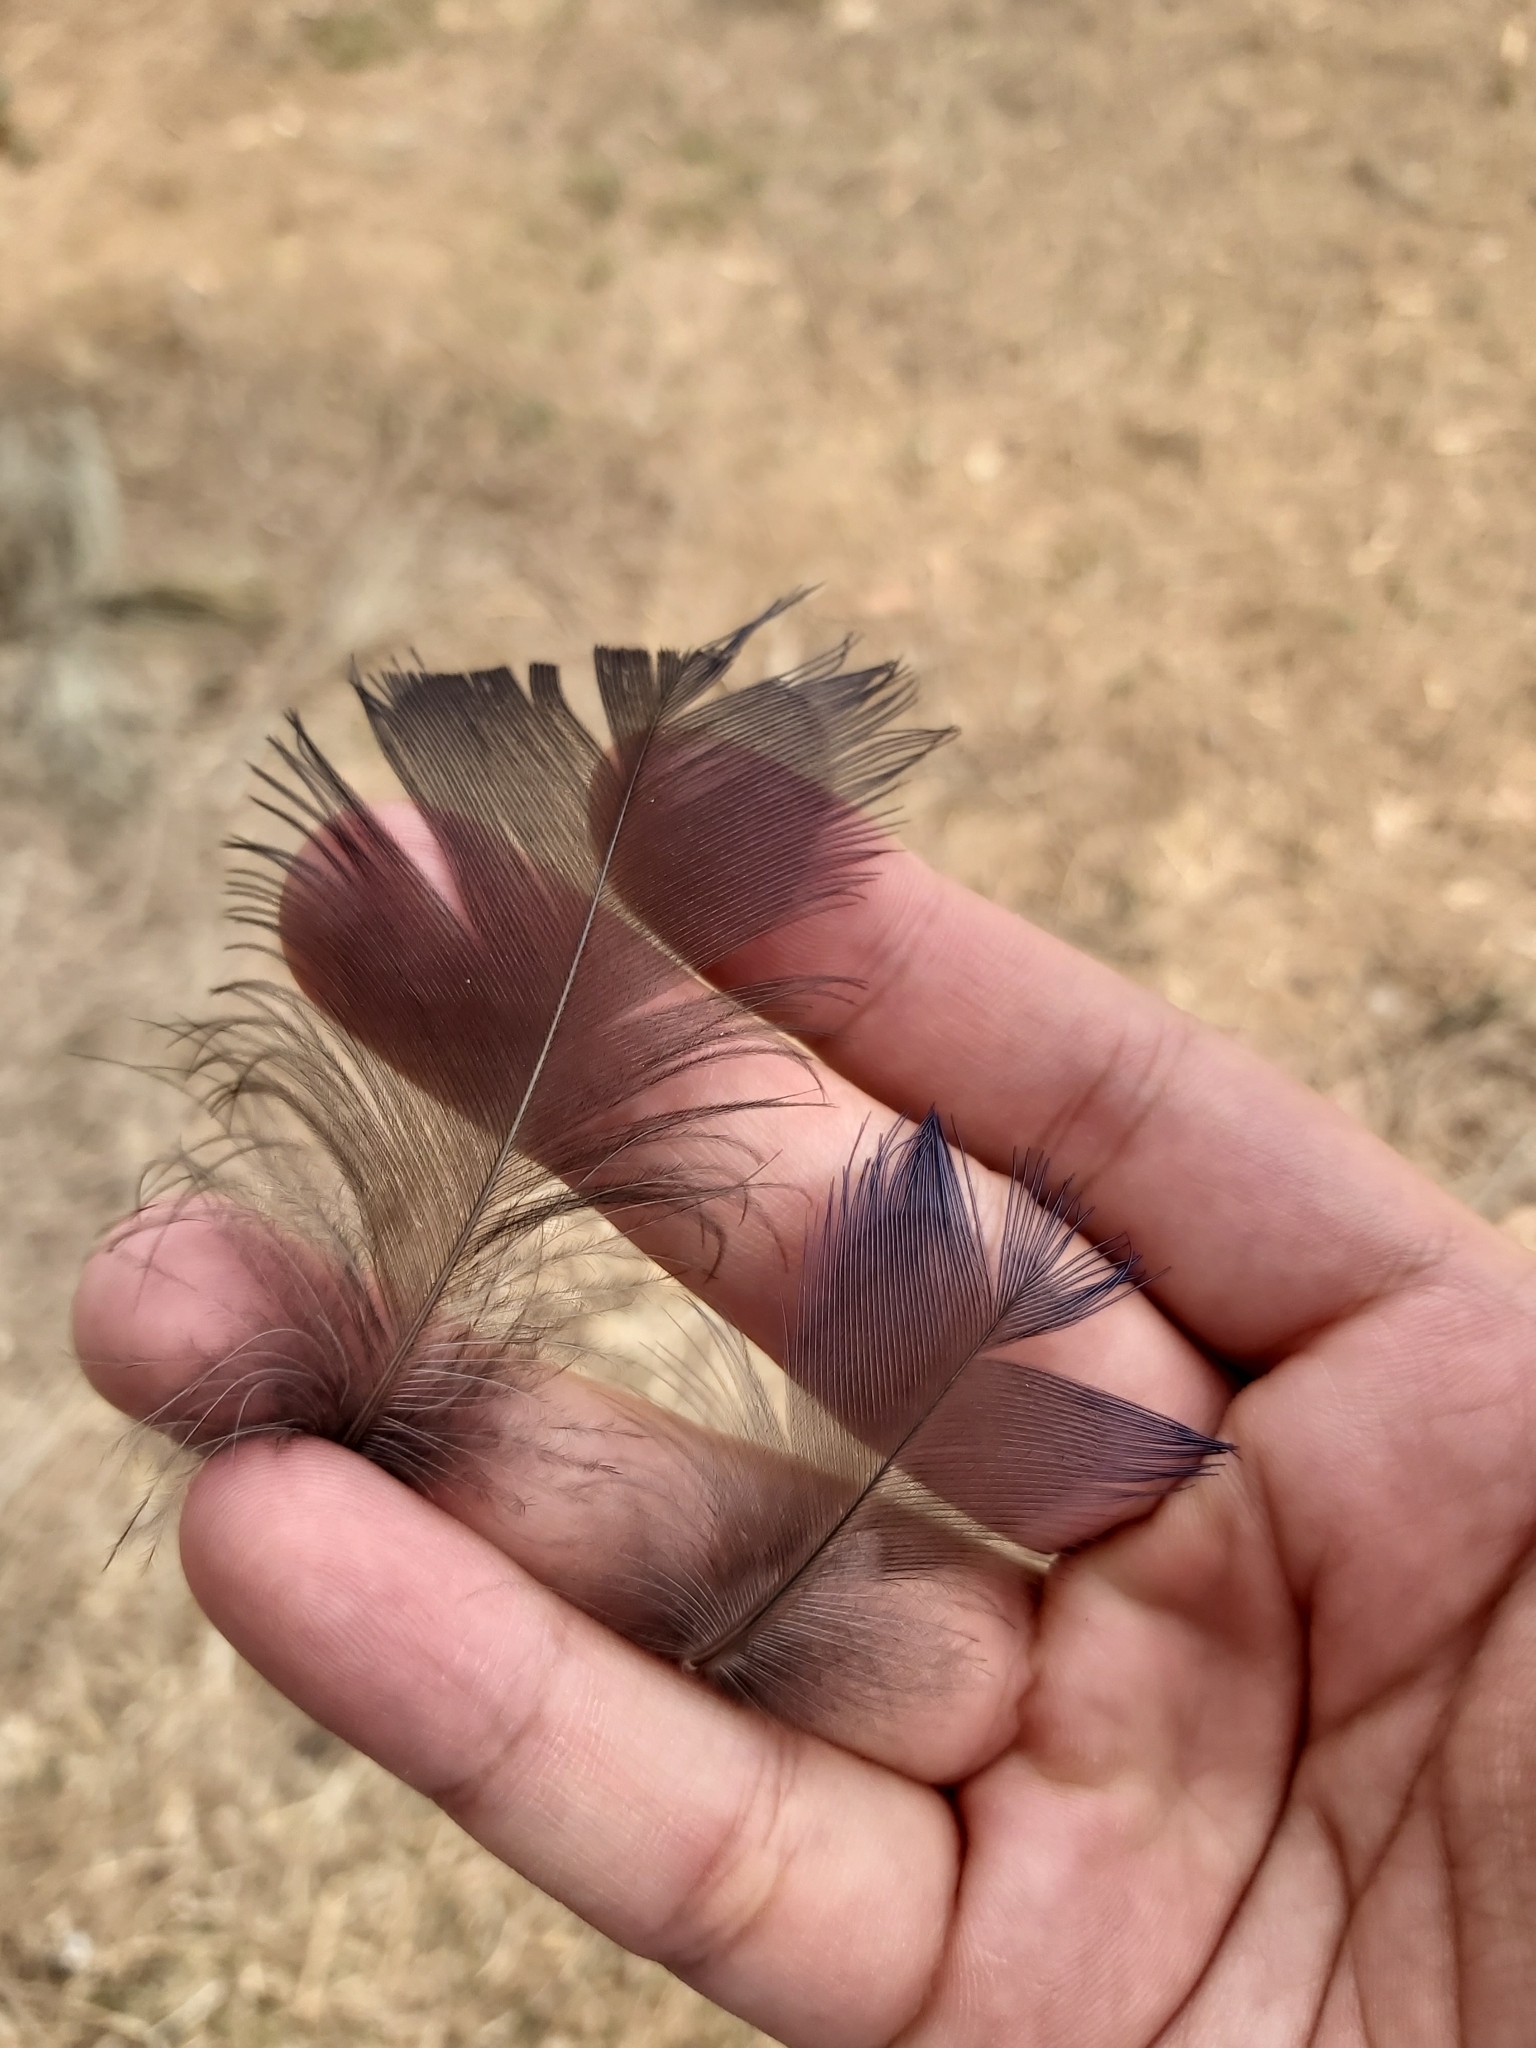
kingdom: Animalia
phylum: Chordata
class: Aves
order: Gruiformes
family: Rallidae
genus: Porphyrio
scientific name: Porphyrio melanotus
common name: Australasian swamphen
